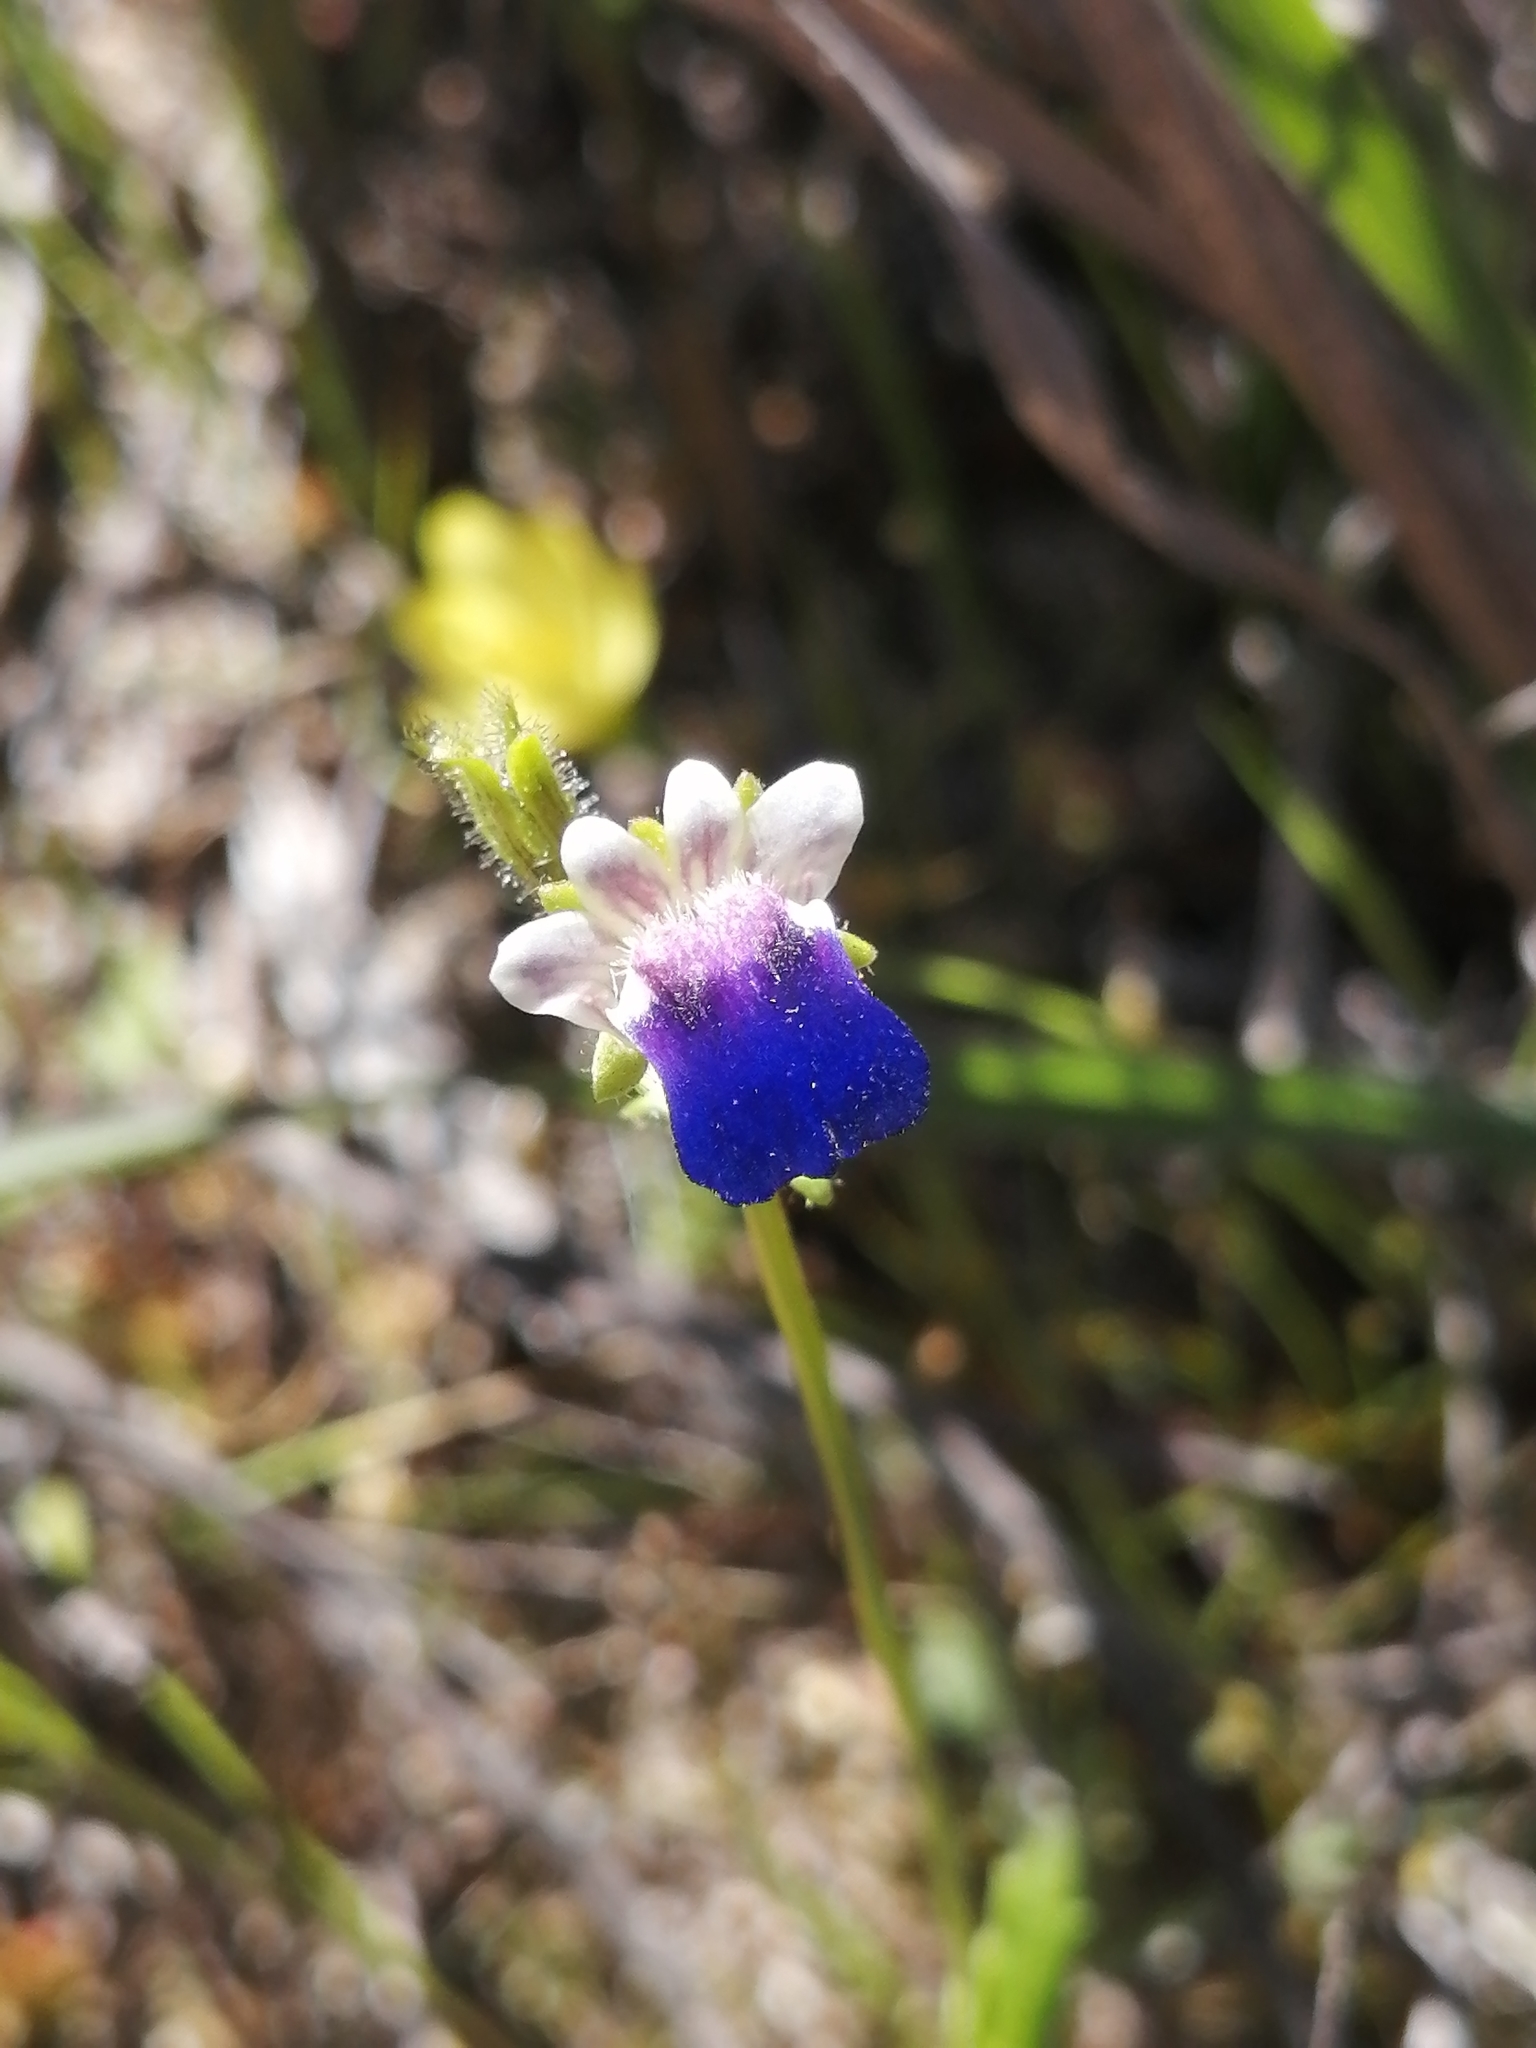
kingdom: Plantae
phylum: Tracheophyta
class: Magnoliopsida
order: Lamiales
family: Scrophulariaceae
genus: Nemesia
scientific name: Nemesia barbata
